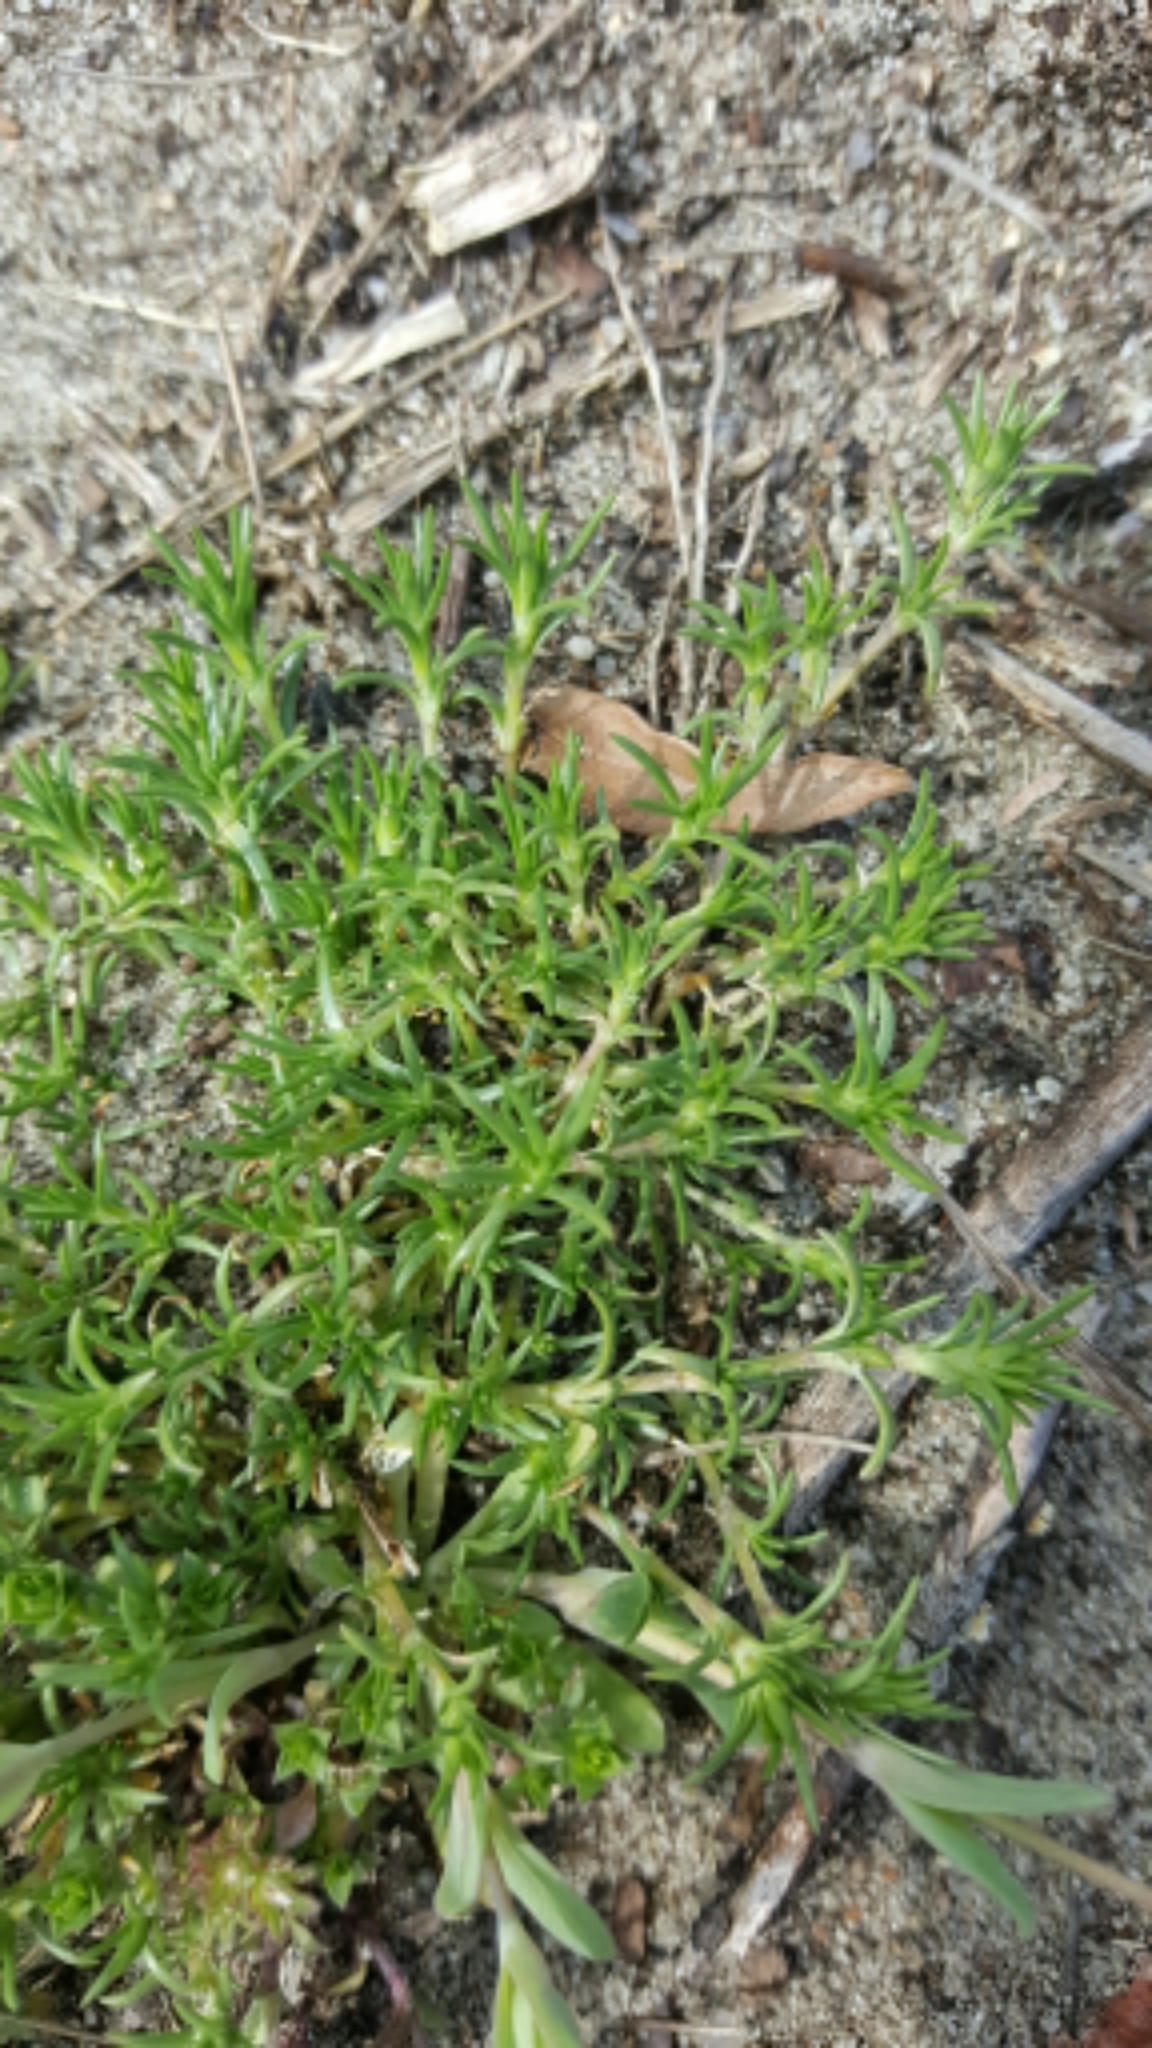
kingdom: Plantae
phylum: Tracheophyta
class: Magnoliopsida
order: Caryophyllales
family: Caryophyllaceae
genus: Scleranthus
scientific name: Scleranthus annuus
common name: Annual knawel
